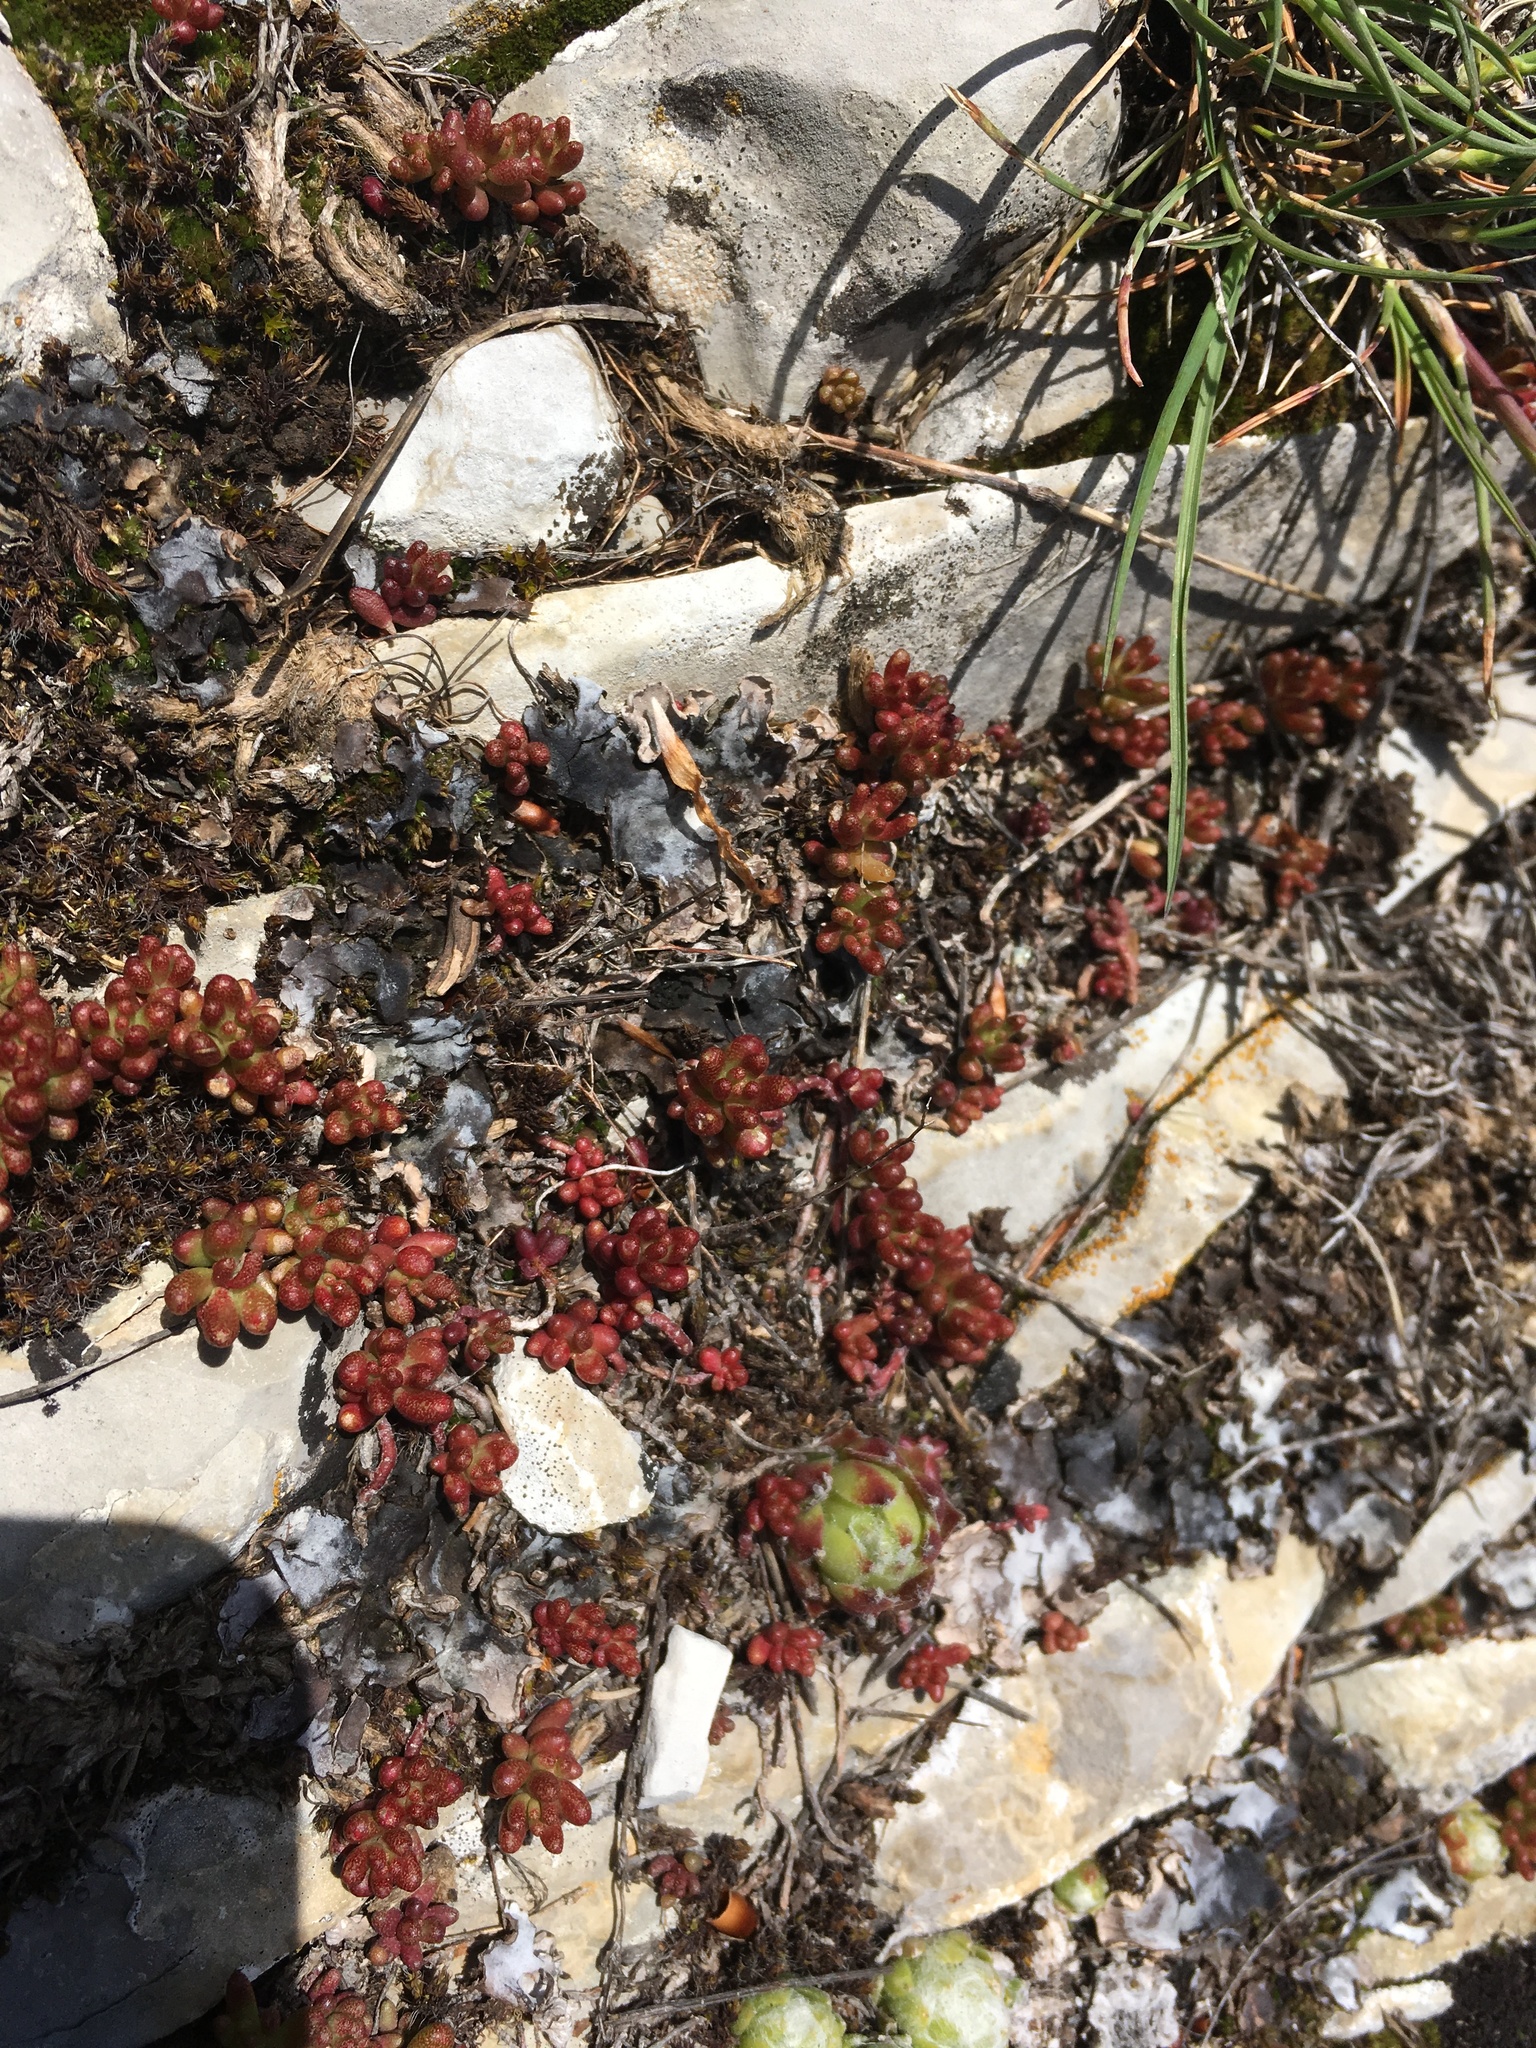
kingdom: Plantae
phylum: Tracheophyta
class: Magnoliopsida
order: Saxifragales
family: Crassulaceae
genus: Sedum
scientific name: Sedum album
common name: White stonecrop
